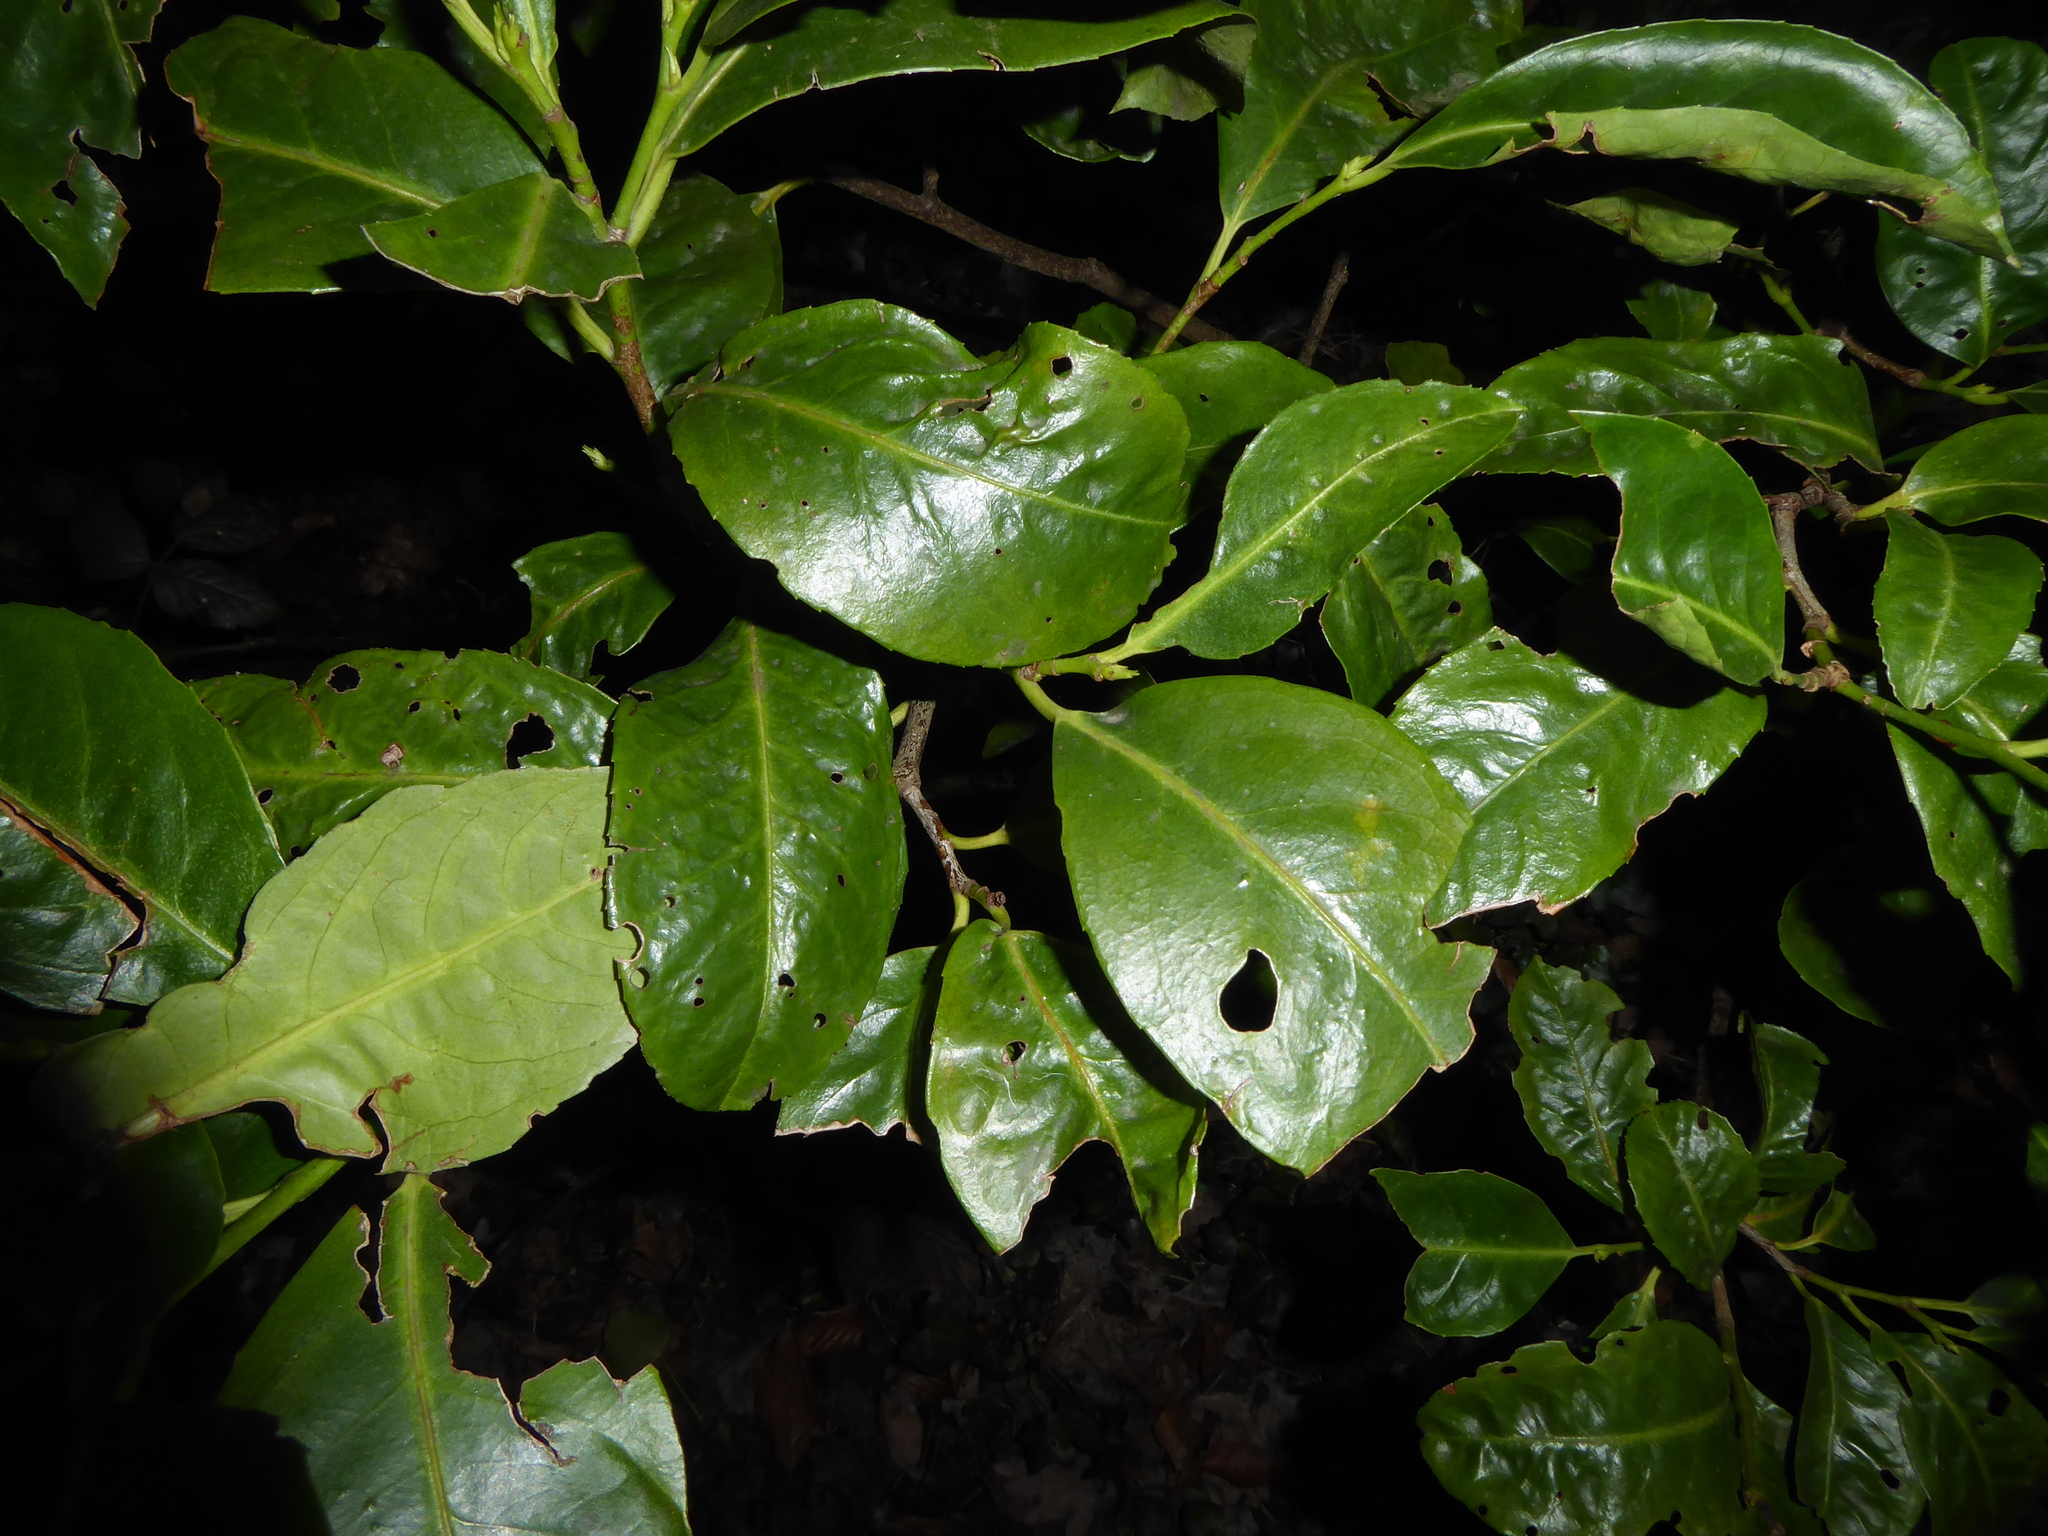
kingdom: Plantae
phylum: Tracheophyta
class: Magnoliopsida
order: Rosales
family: Rosaceae
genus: Prunus
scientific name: Prunus laurocerasus
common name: Cherry laurel
